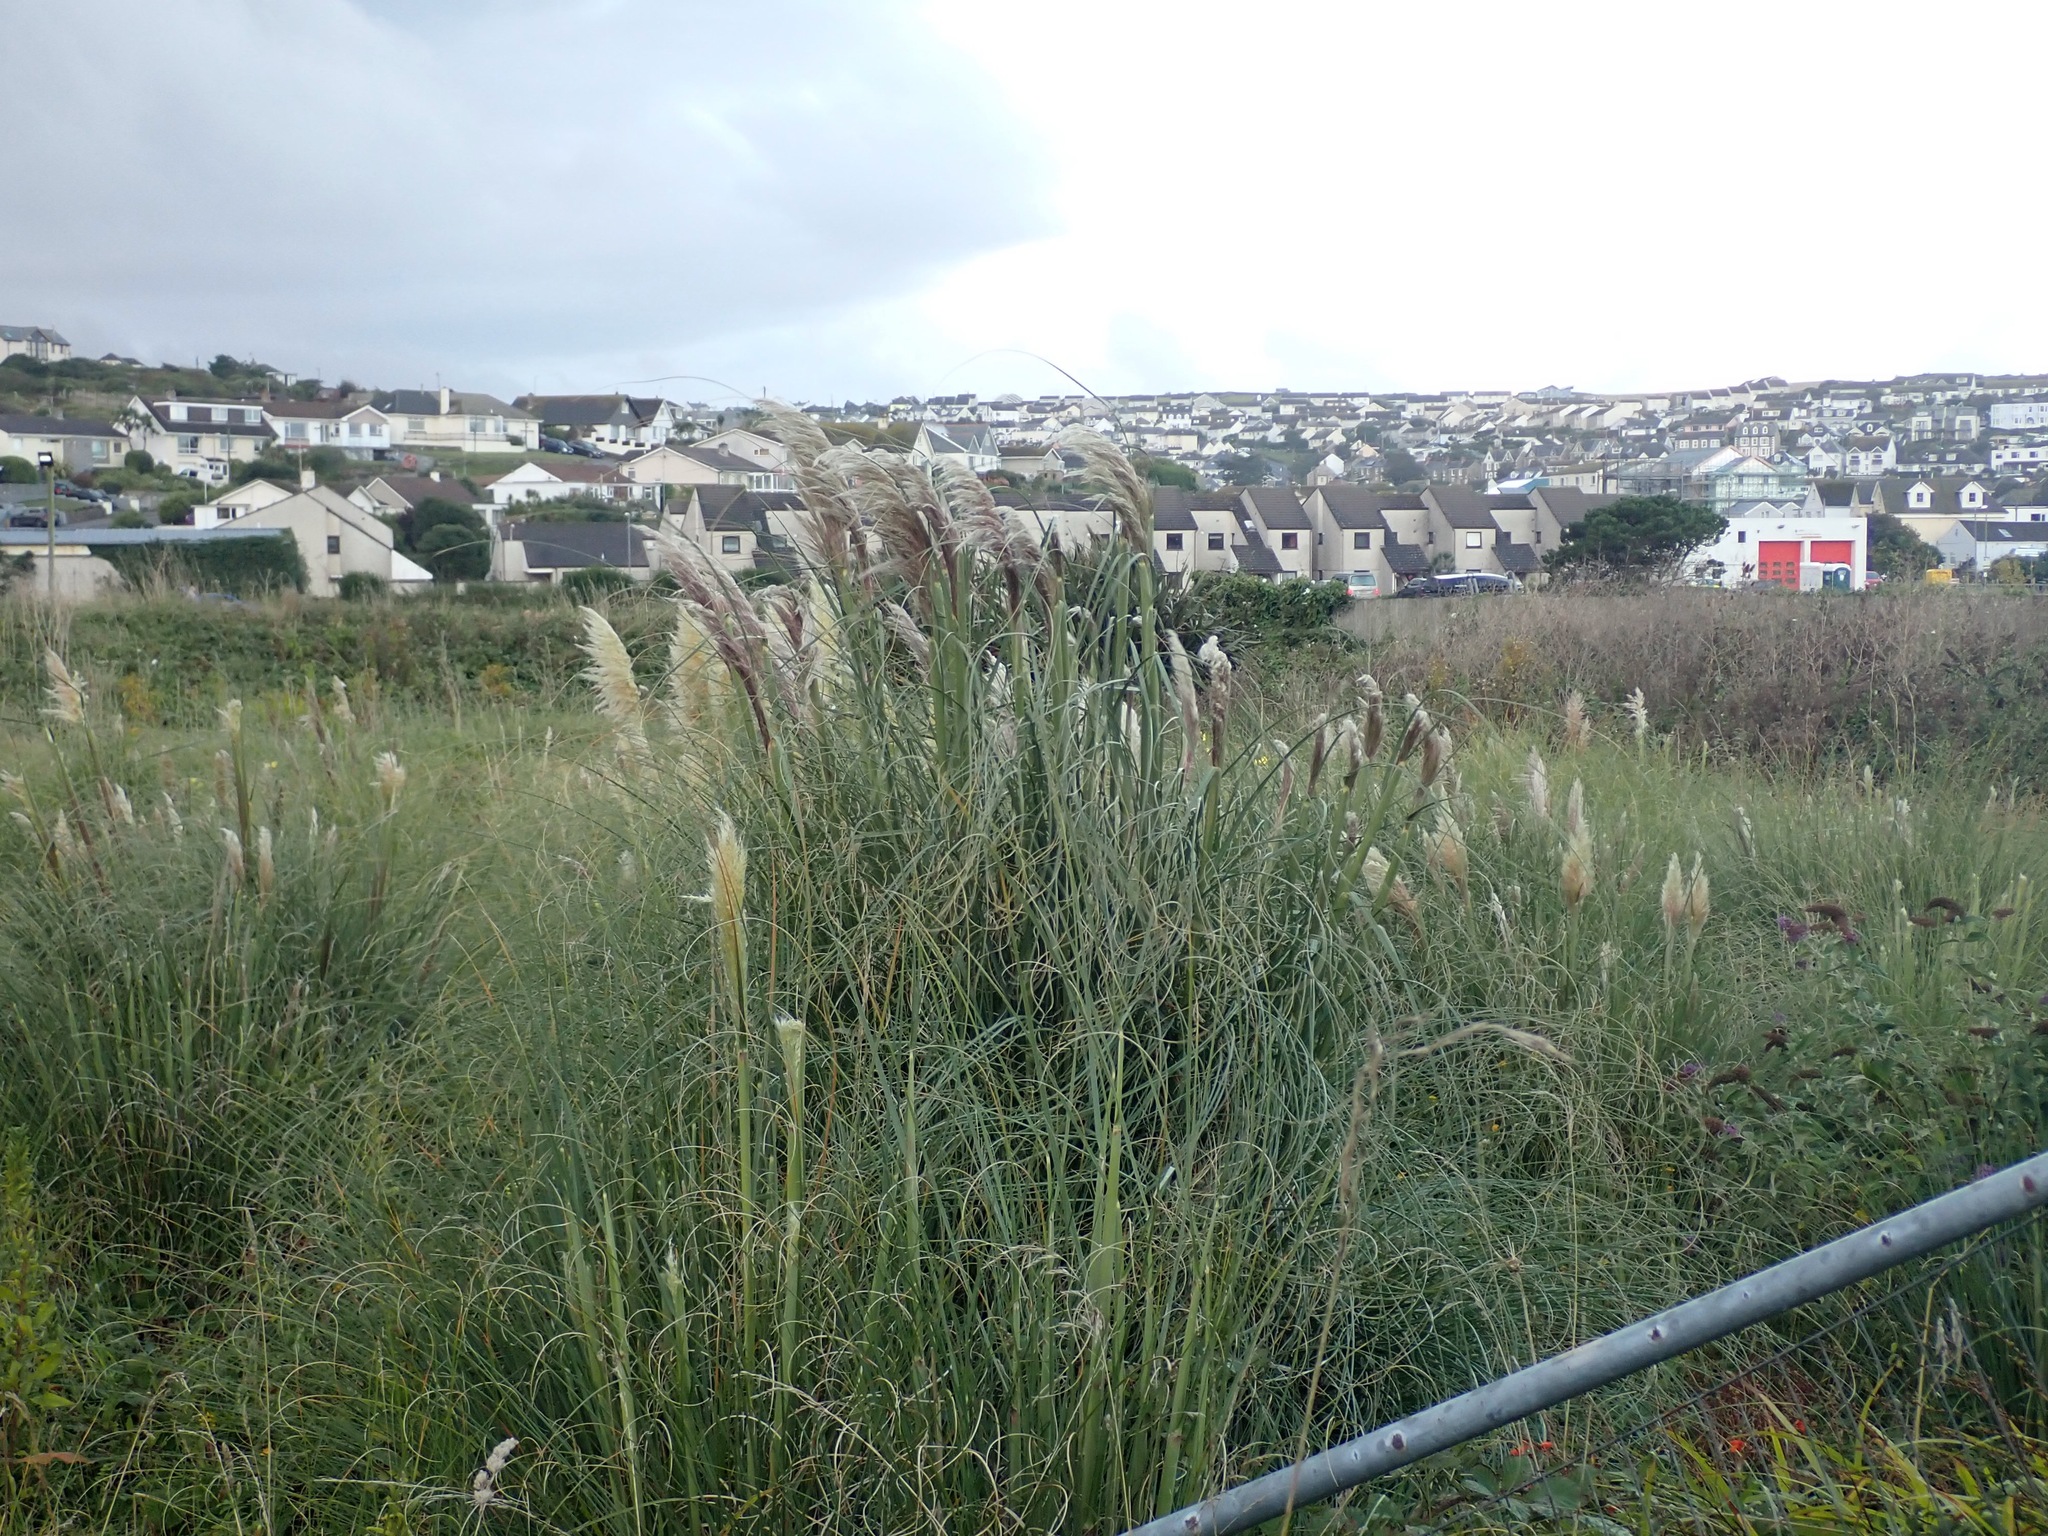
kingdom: Plantae
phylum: Tracheophyta
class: Liliopsida
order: Poales
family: Poaceae
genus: Cortaderia
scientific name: Cortaderia selloana
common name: Uruguayan pampas grass
